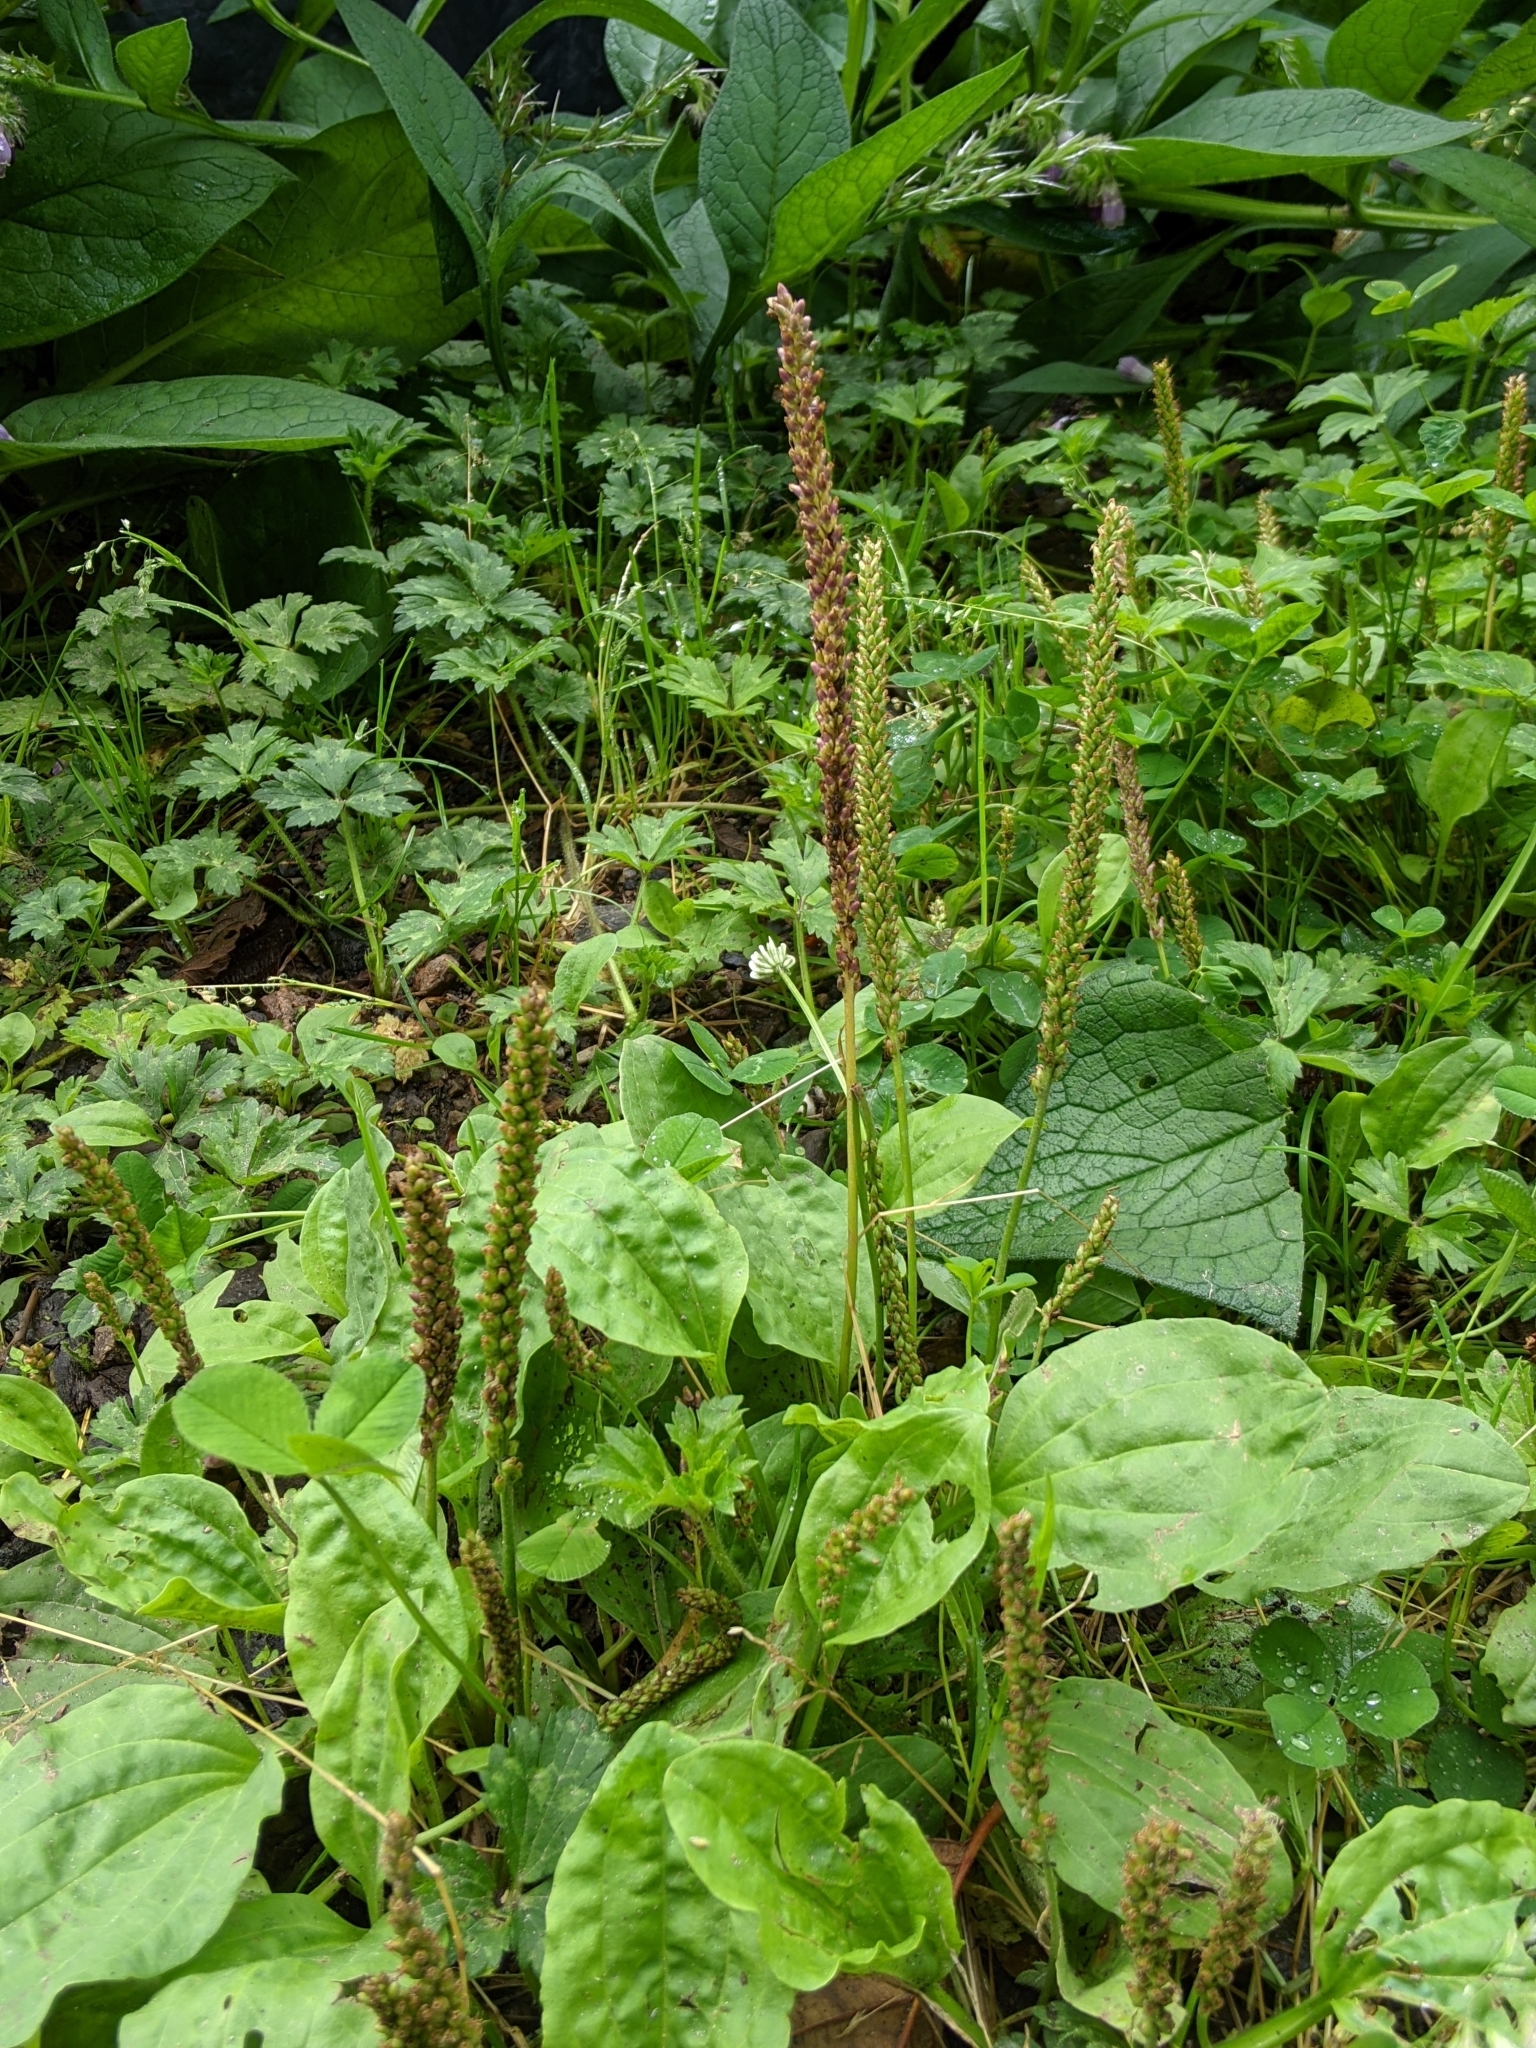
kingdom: Plantae
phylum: Tracheophyta
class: Magnoliopsida
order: Lamiales
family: Plantaginaceae
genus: Plantago
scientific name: Plantago major
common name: Common plantain
